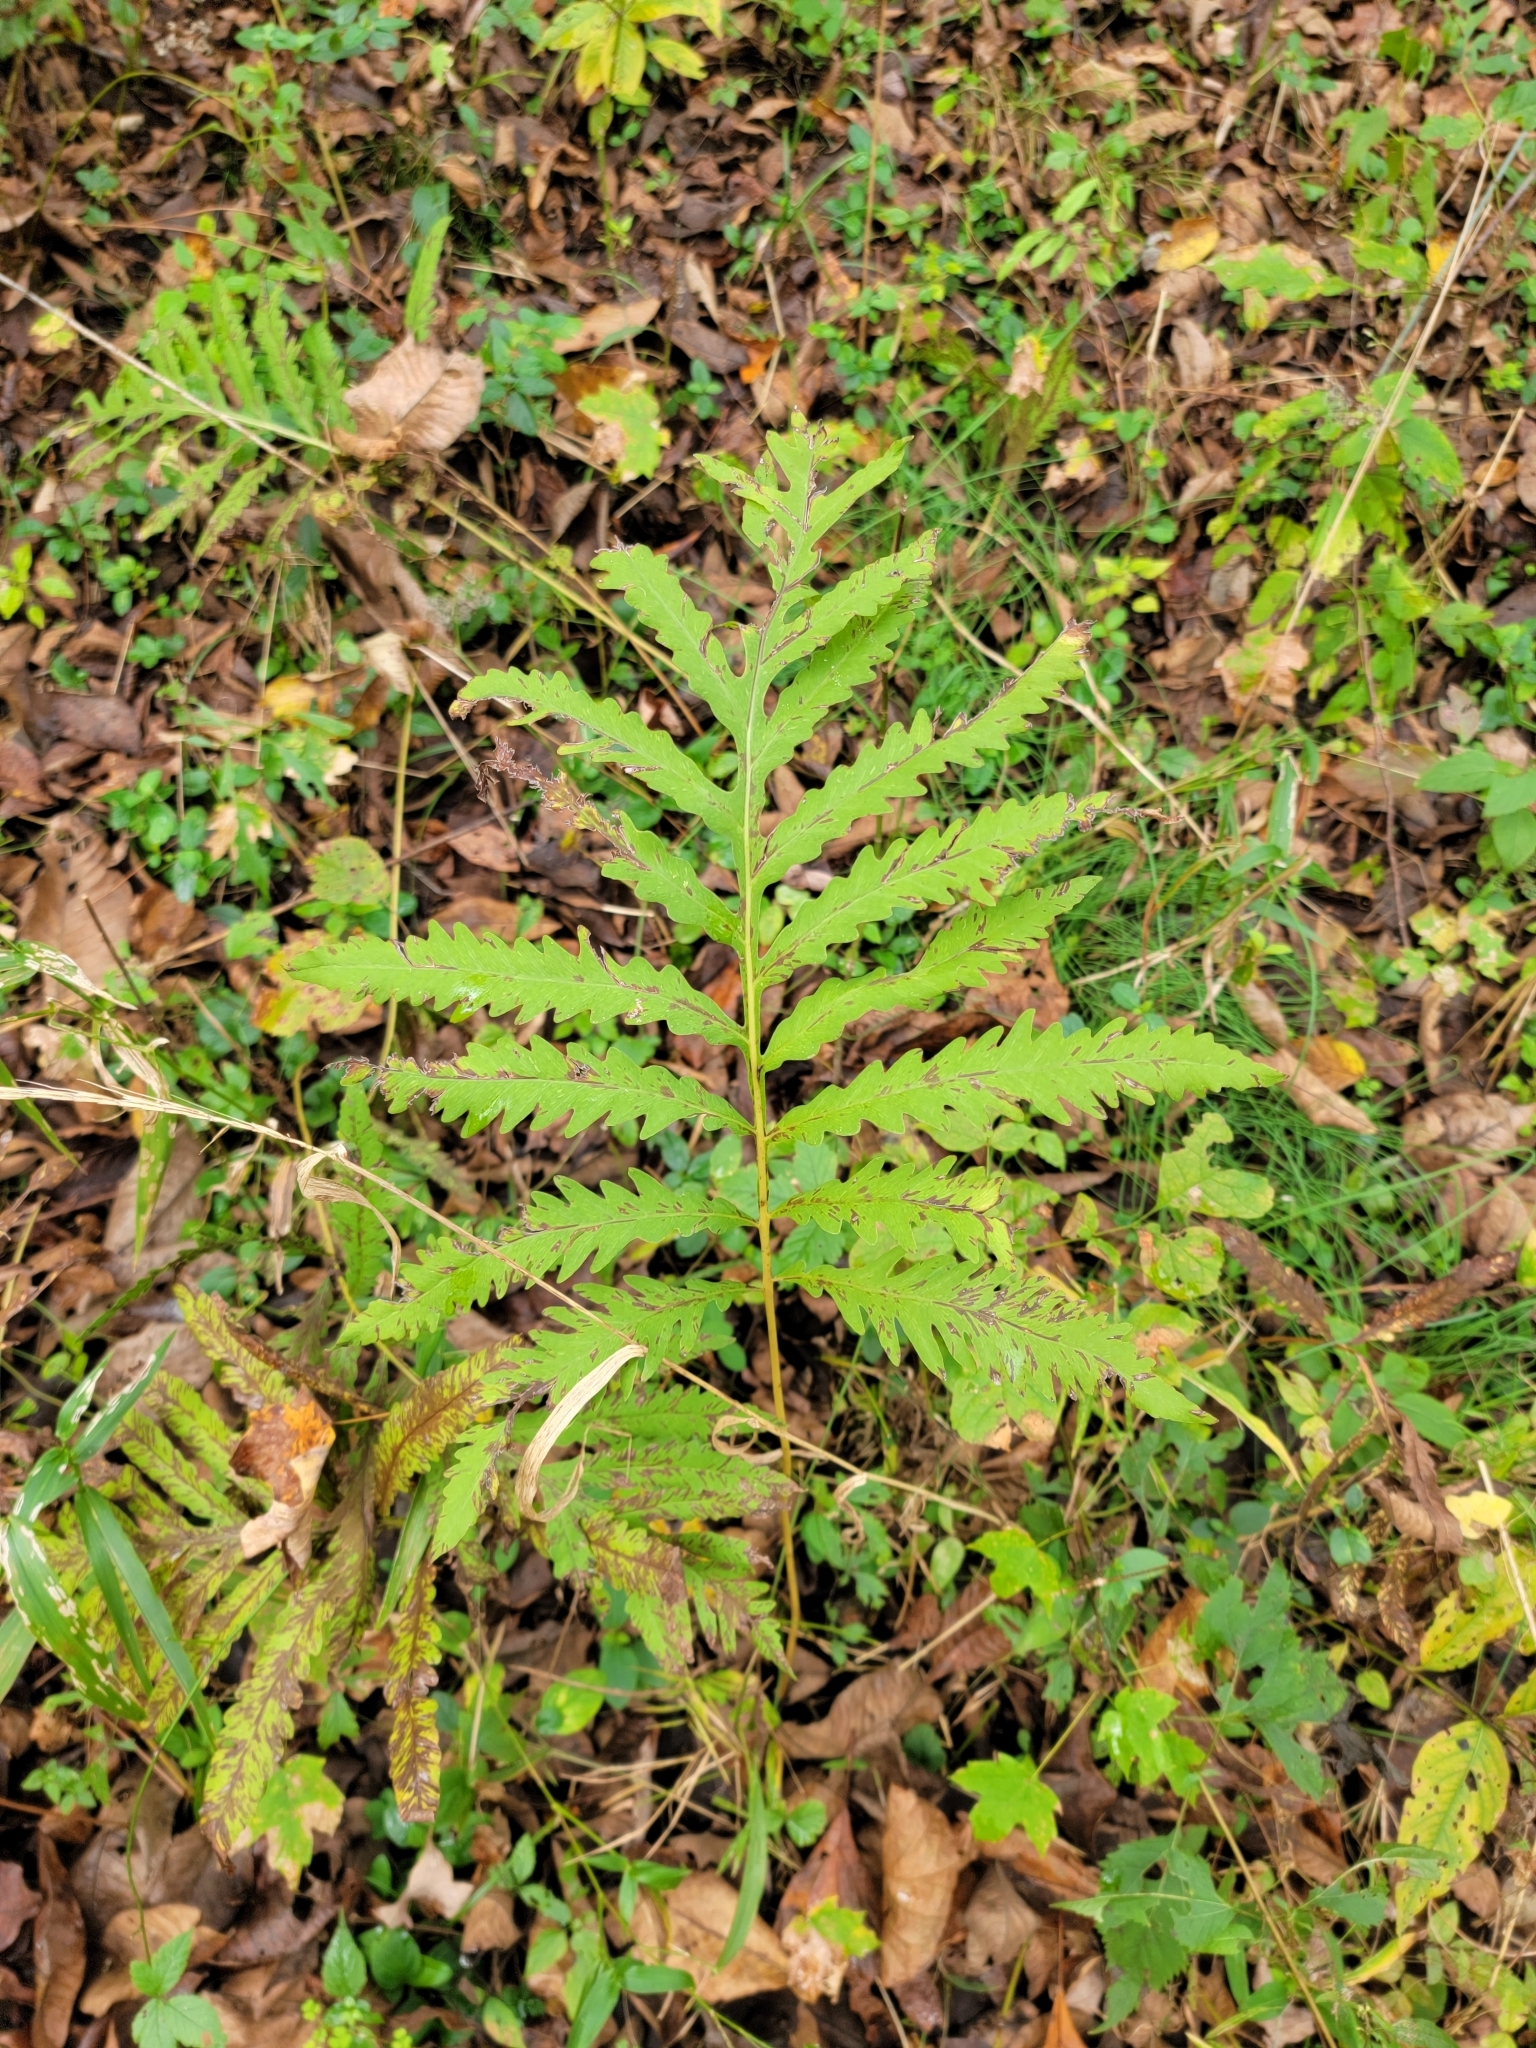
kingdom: Plantae
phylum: Tracheophyta
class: Polypodiopsida
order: Polypodiales
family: Onocleaceae
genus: Onoclea
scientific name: Onoclea sensibilis
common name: Sensitive fern
